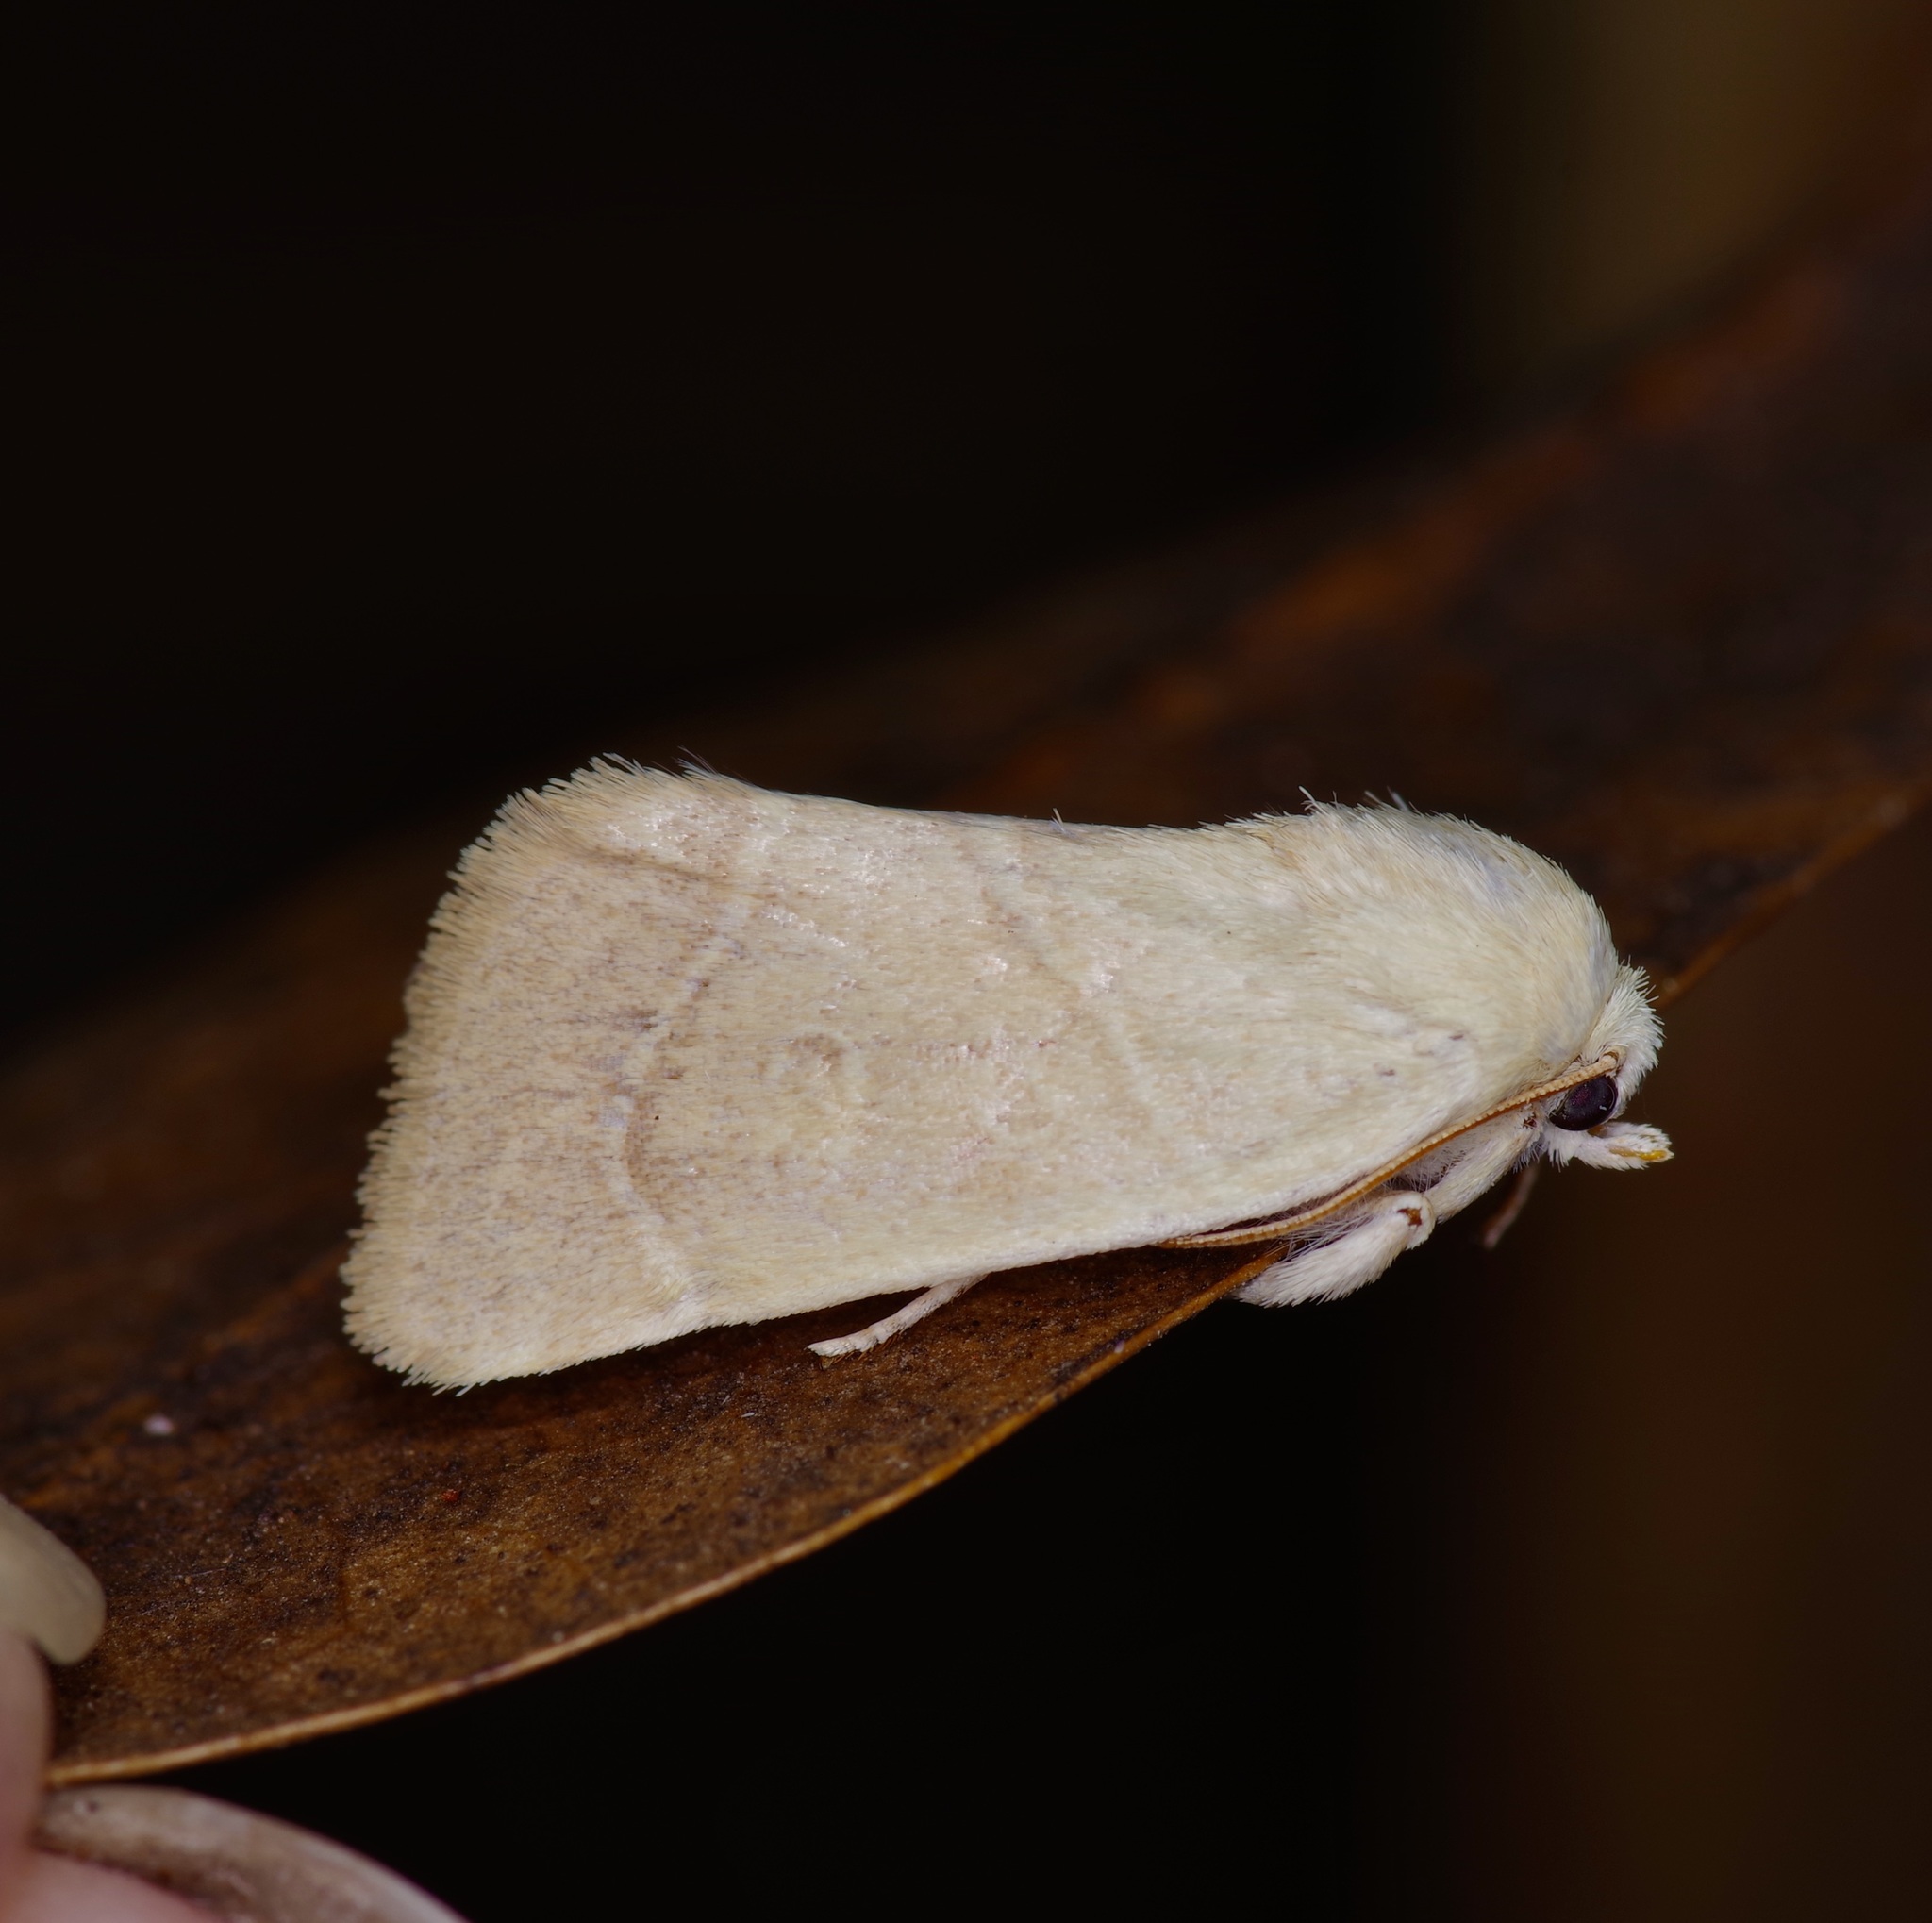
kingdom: Animalia
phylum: Arthropoda
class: Insecta
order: Lepidoptera
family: Noctuidae
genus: Cosmia
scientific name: Cosmia calami
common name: American dun-bar moth
